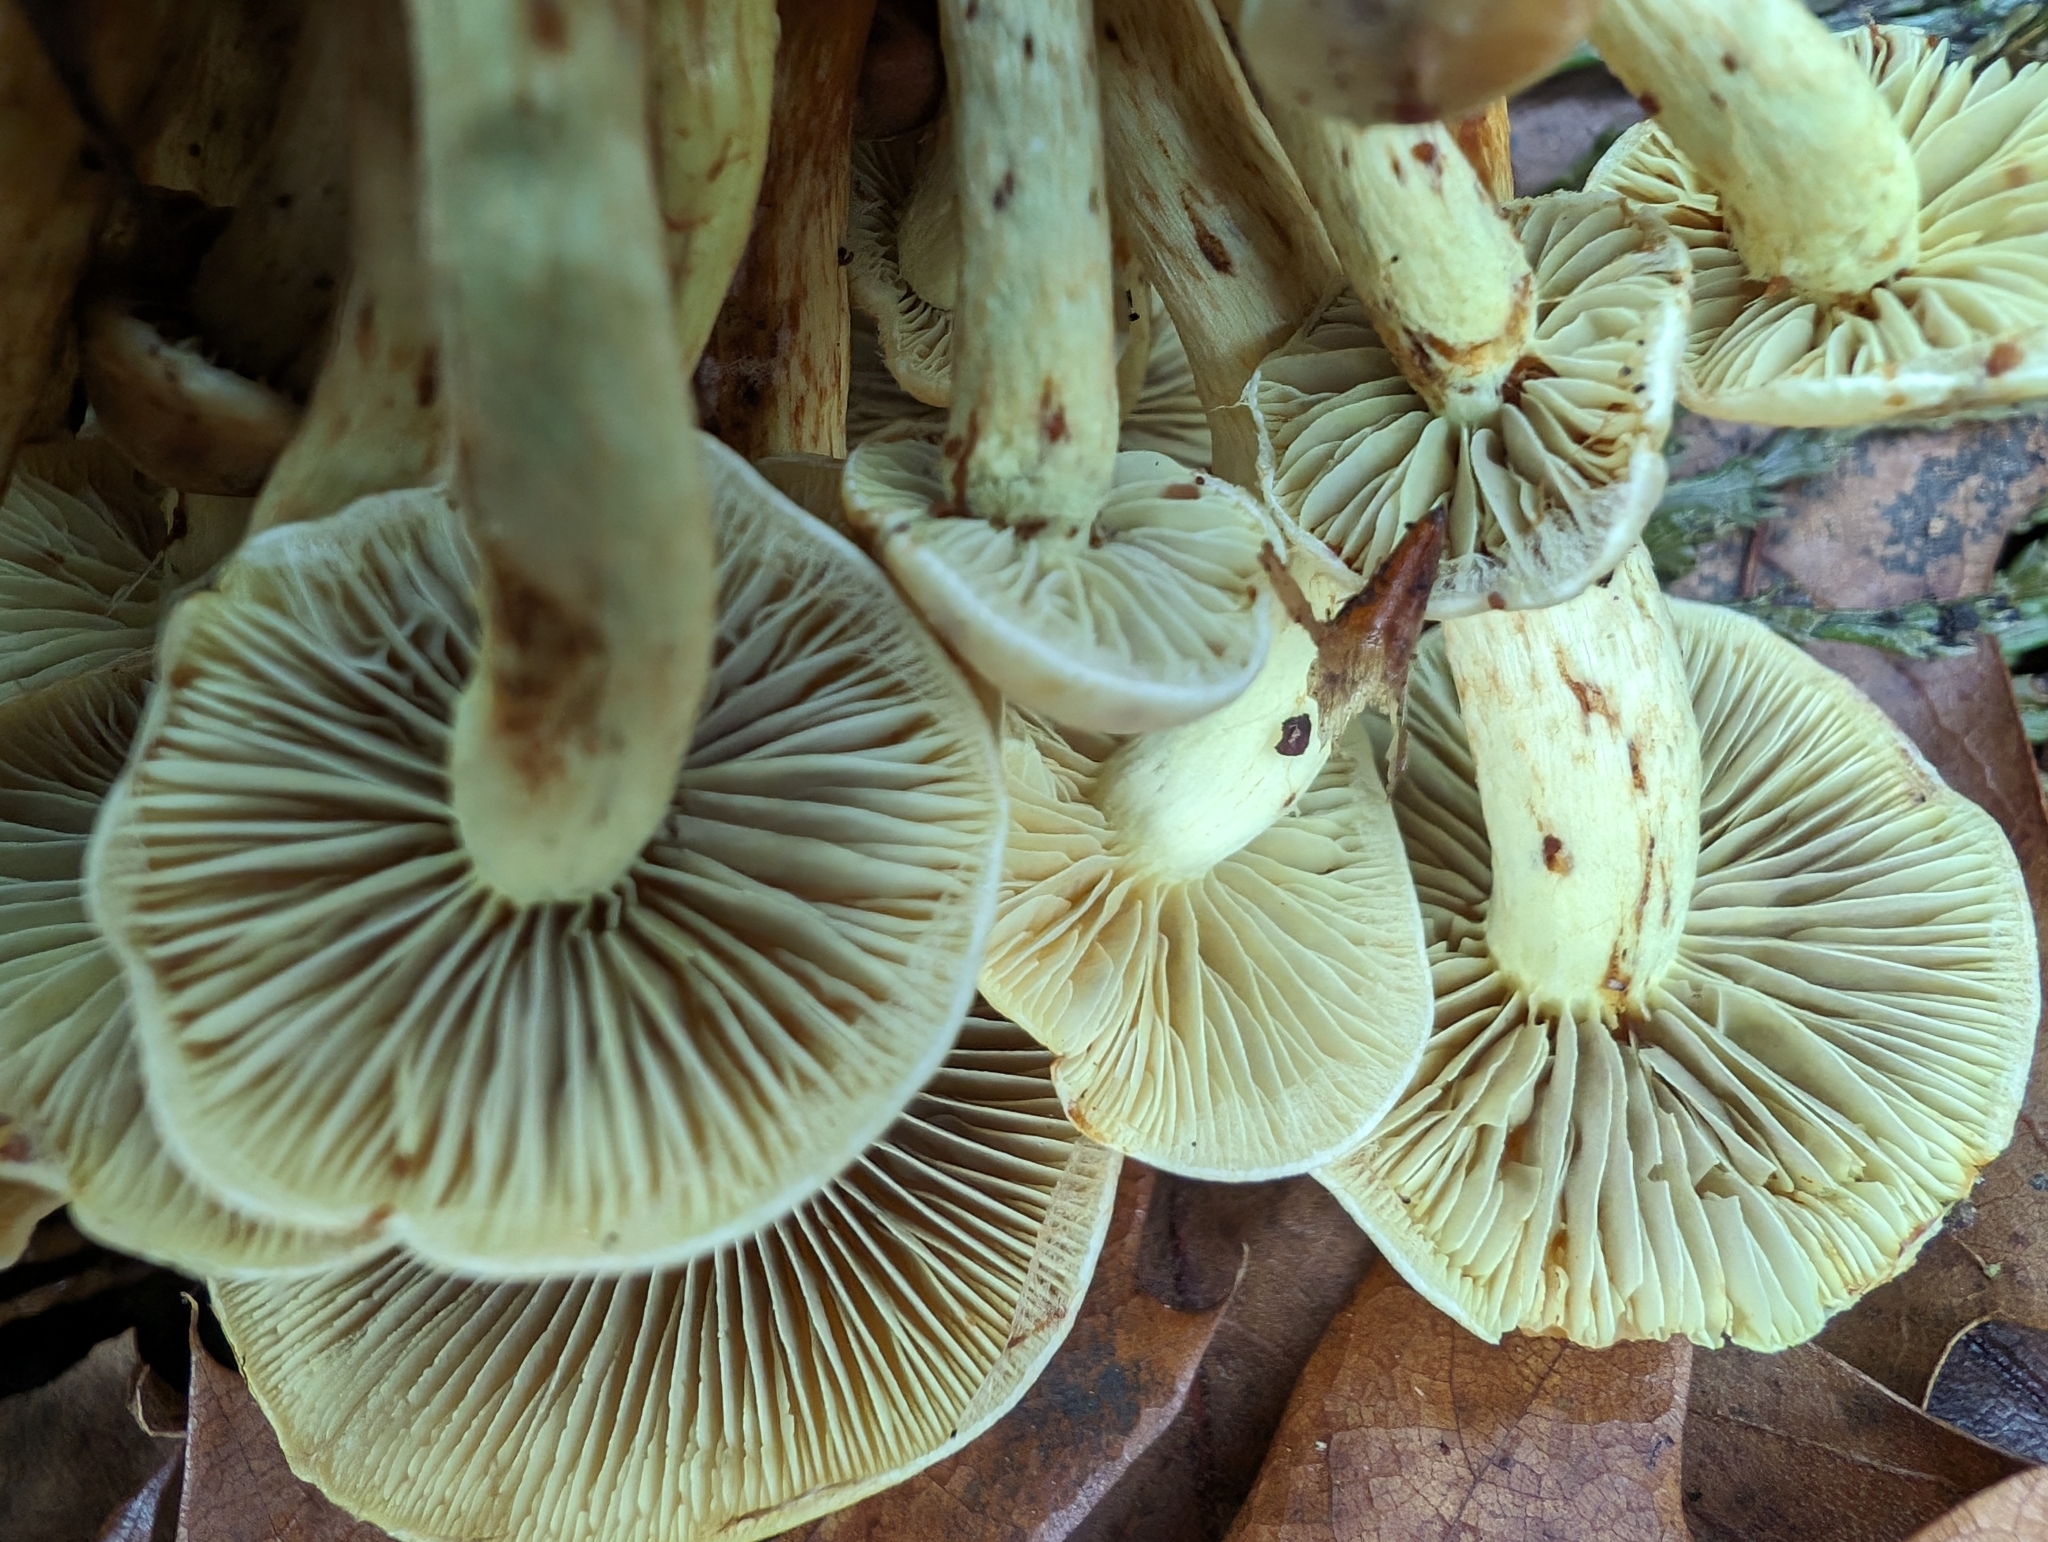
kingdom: Fungi
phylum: Basidiomycota
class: Agaricomycetes
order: Agaricales
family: Strophariaceae
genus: Hypholoma
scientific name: Hypholoma fasciculare
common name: Sulphur tuft
